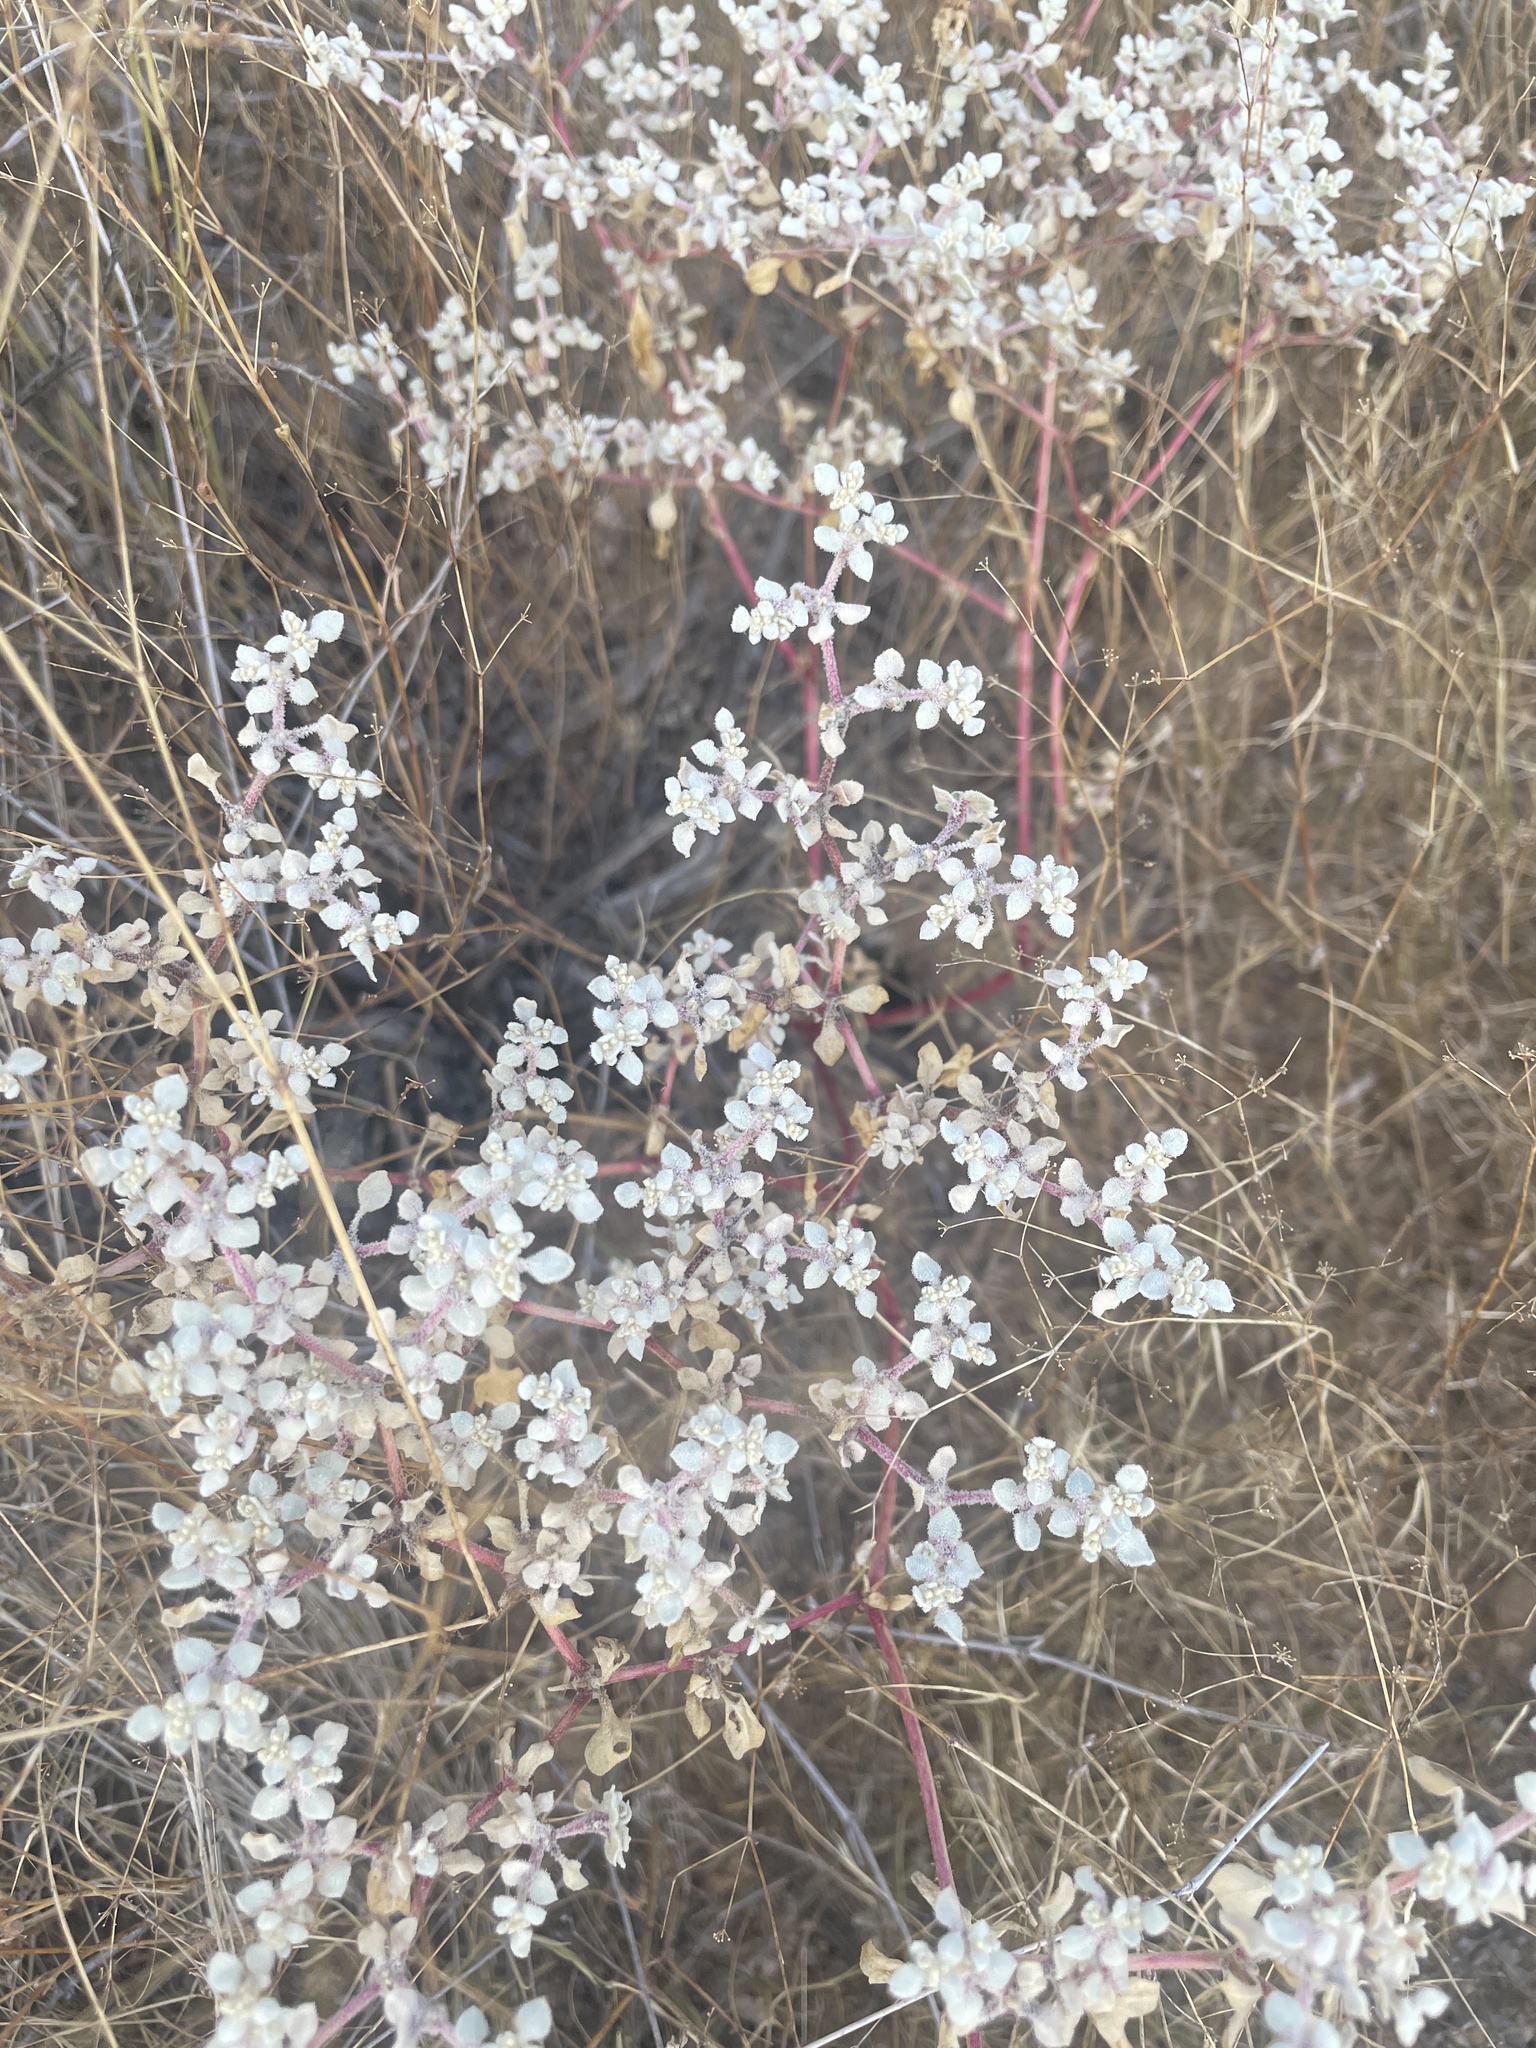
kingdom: Plantae
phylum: Tracheophyta
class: Magnoliopsida
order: Caryophyllales
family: Amaranthaceae
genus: Tidestromia
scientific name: Tidestromia lanuginosa
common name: Woolly tidestromia
